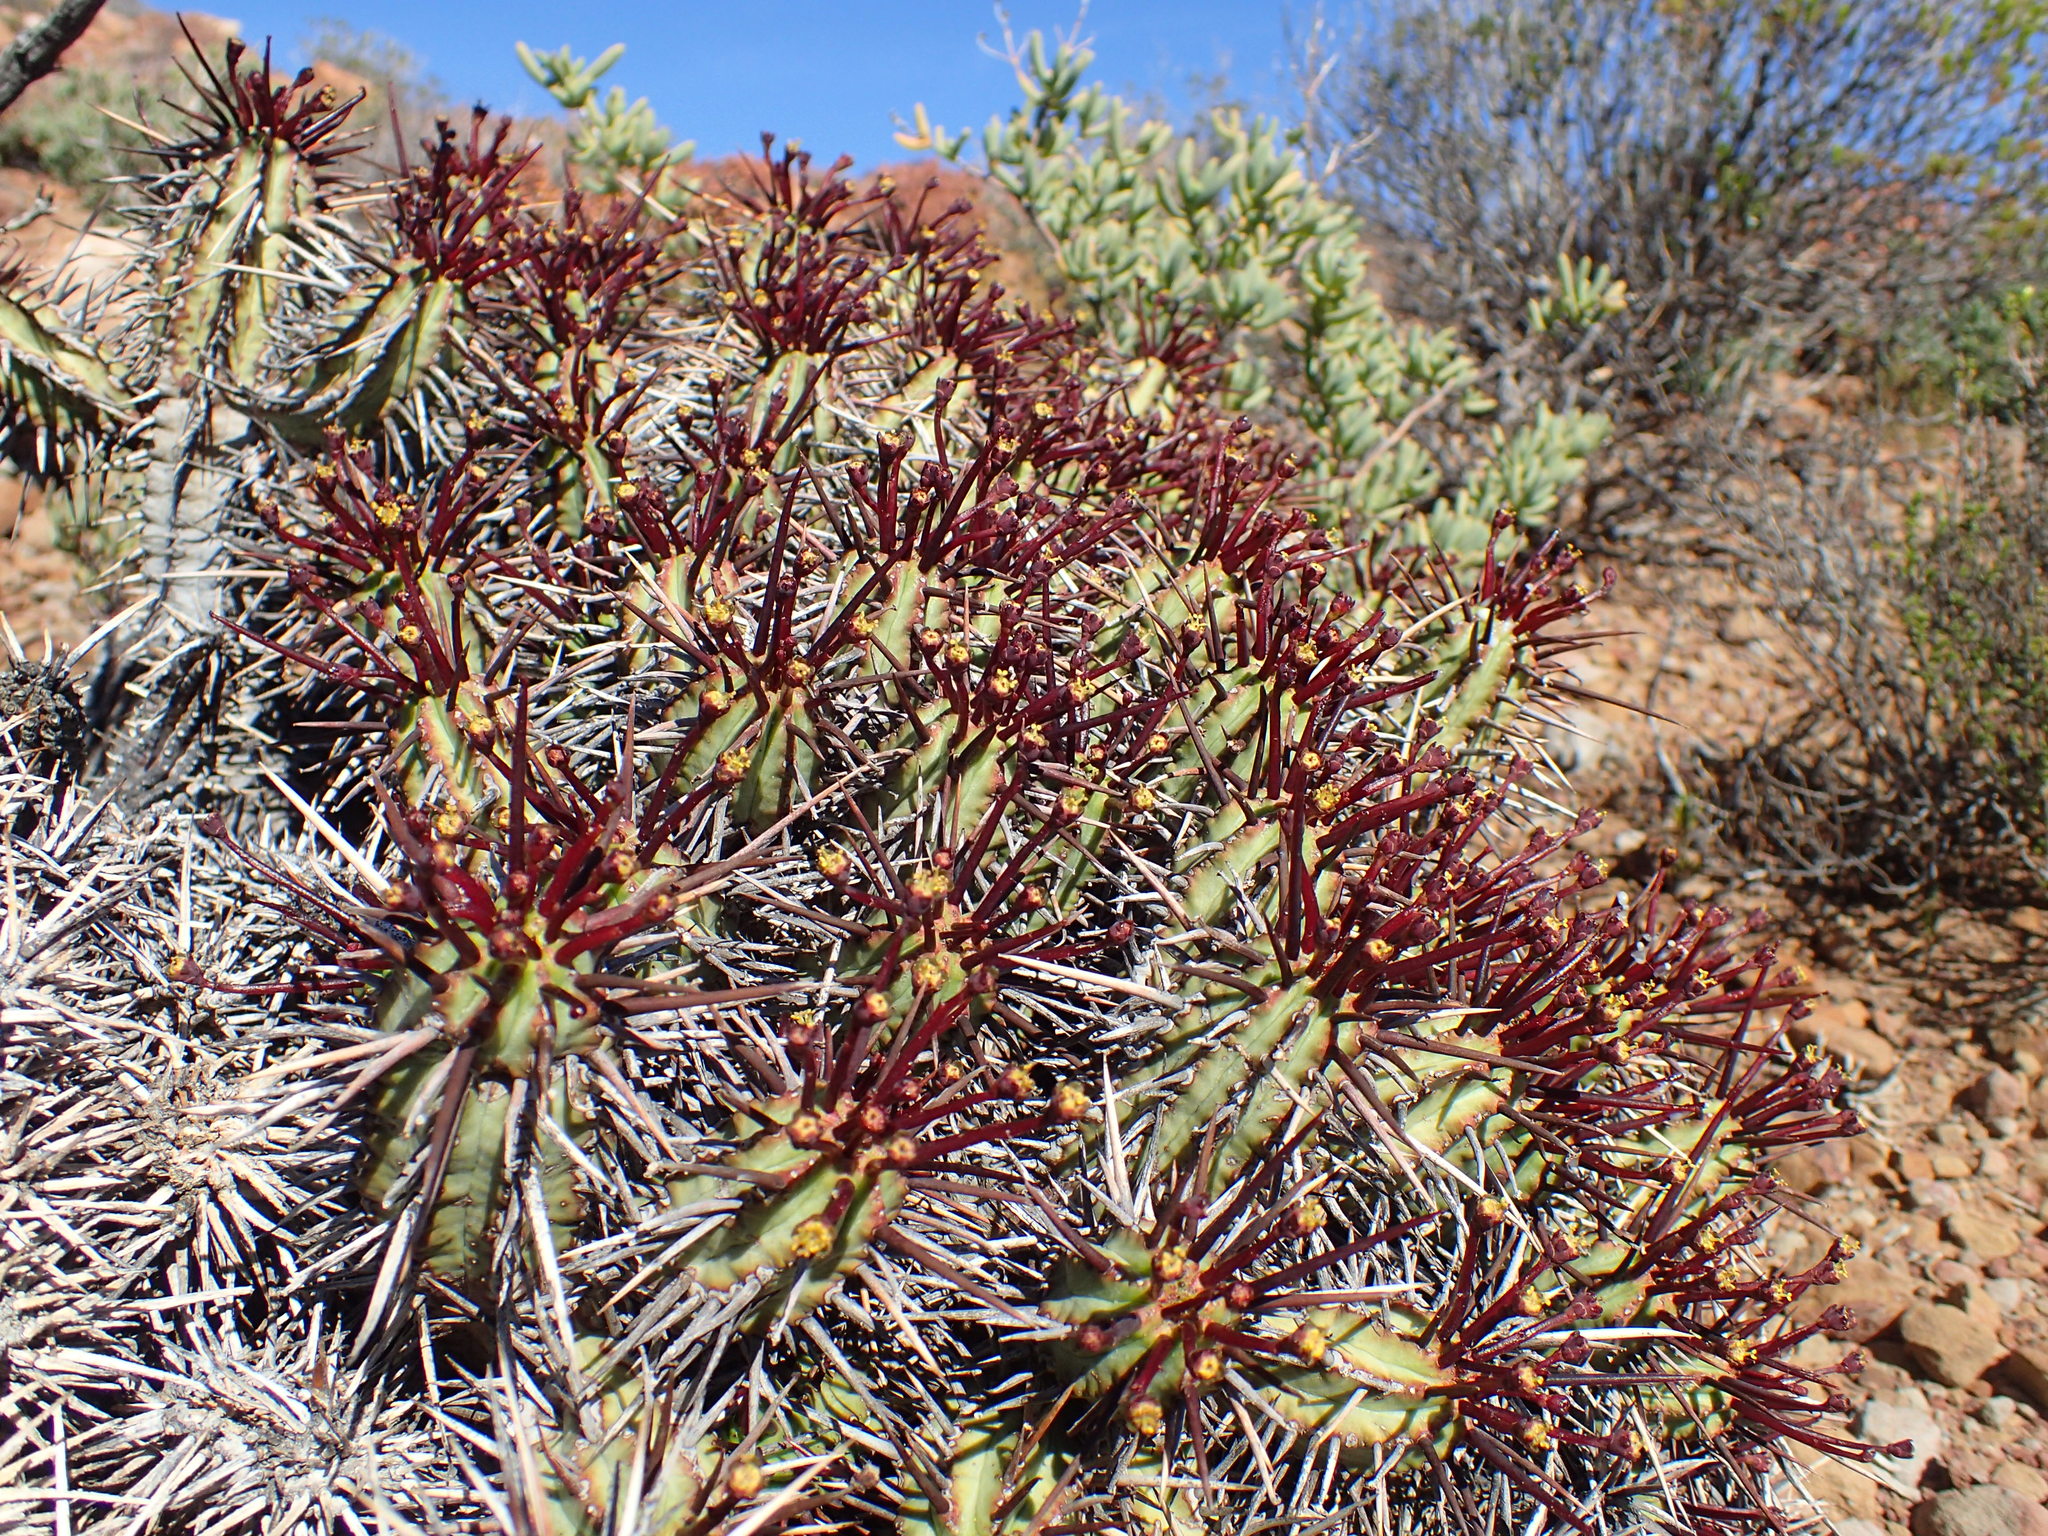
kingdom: Plantae
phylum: Tracheophyta
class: Magnoliopsida
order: Malpighiales
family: Euphorbiaceae
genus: Euphorbia
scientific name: Euphorbia heptagona
